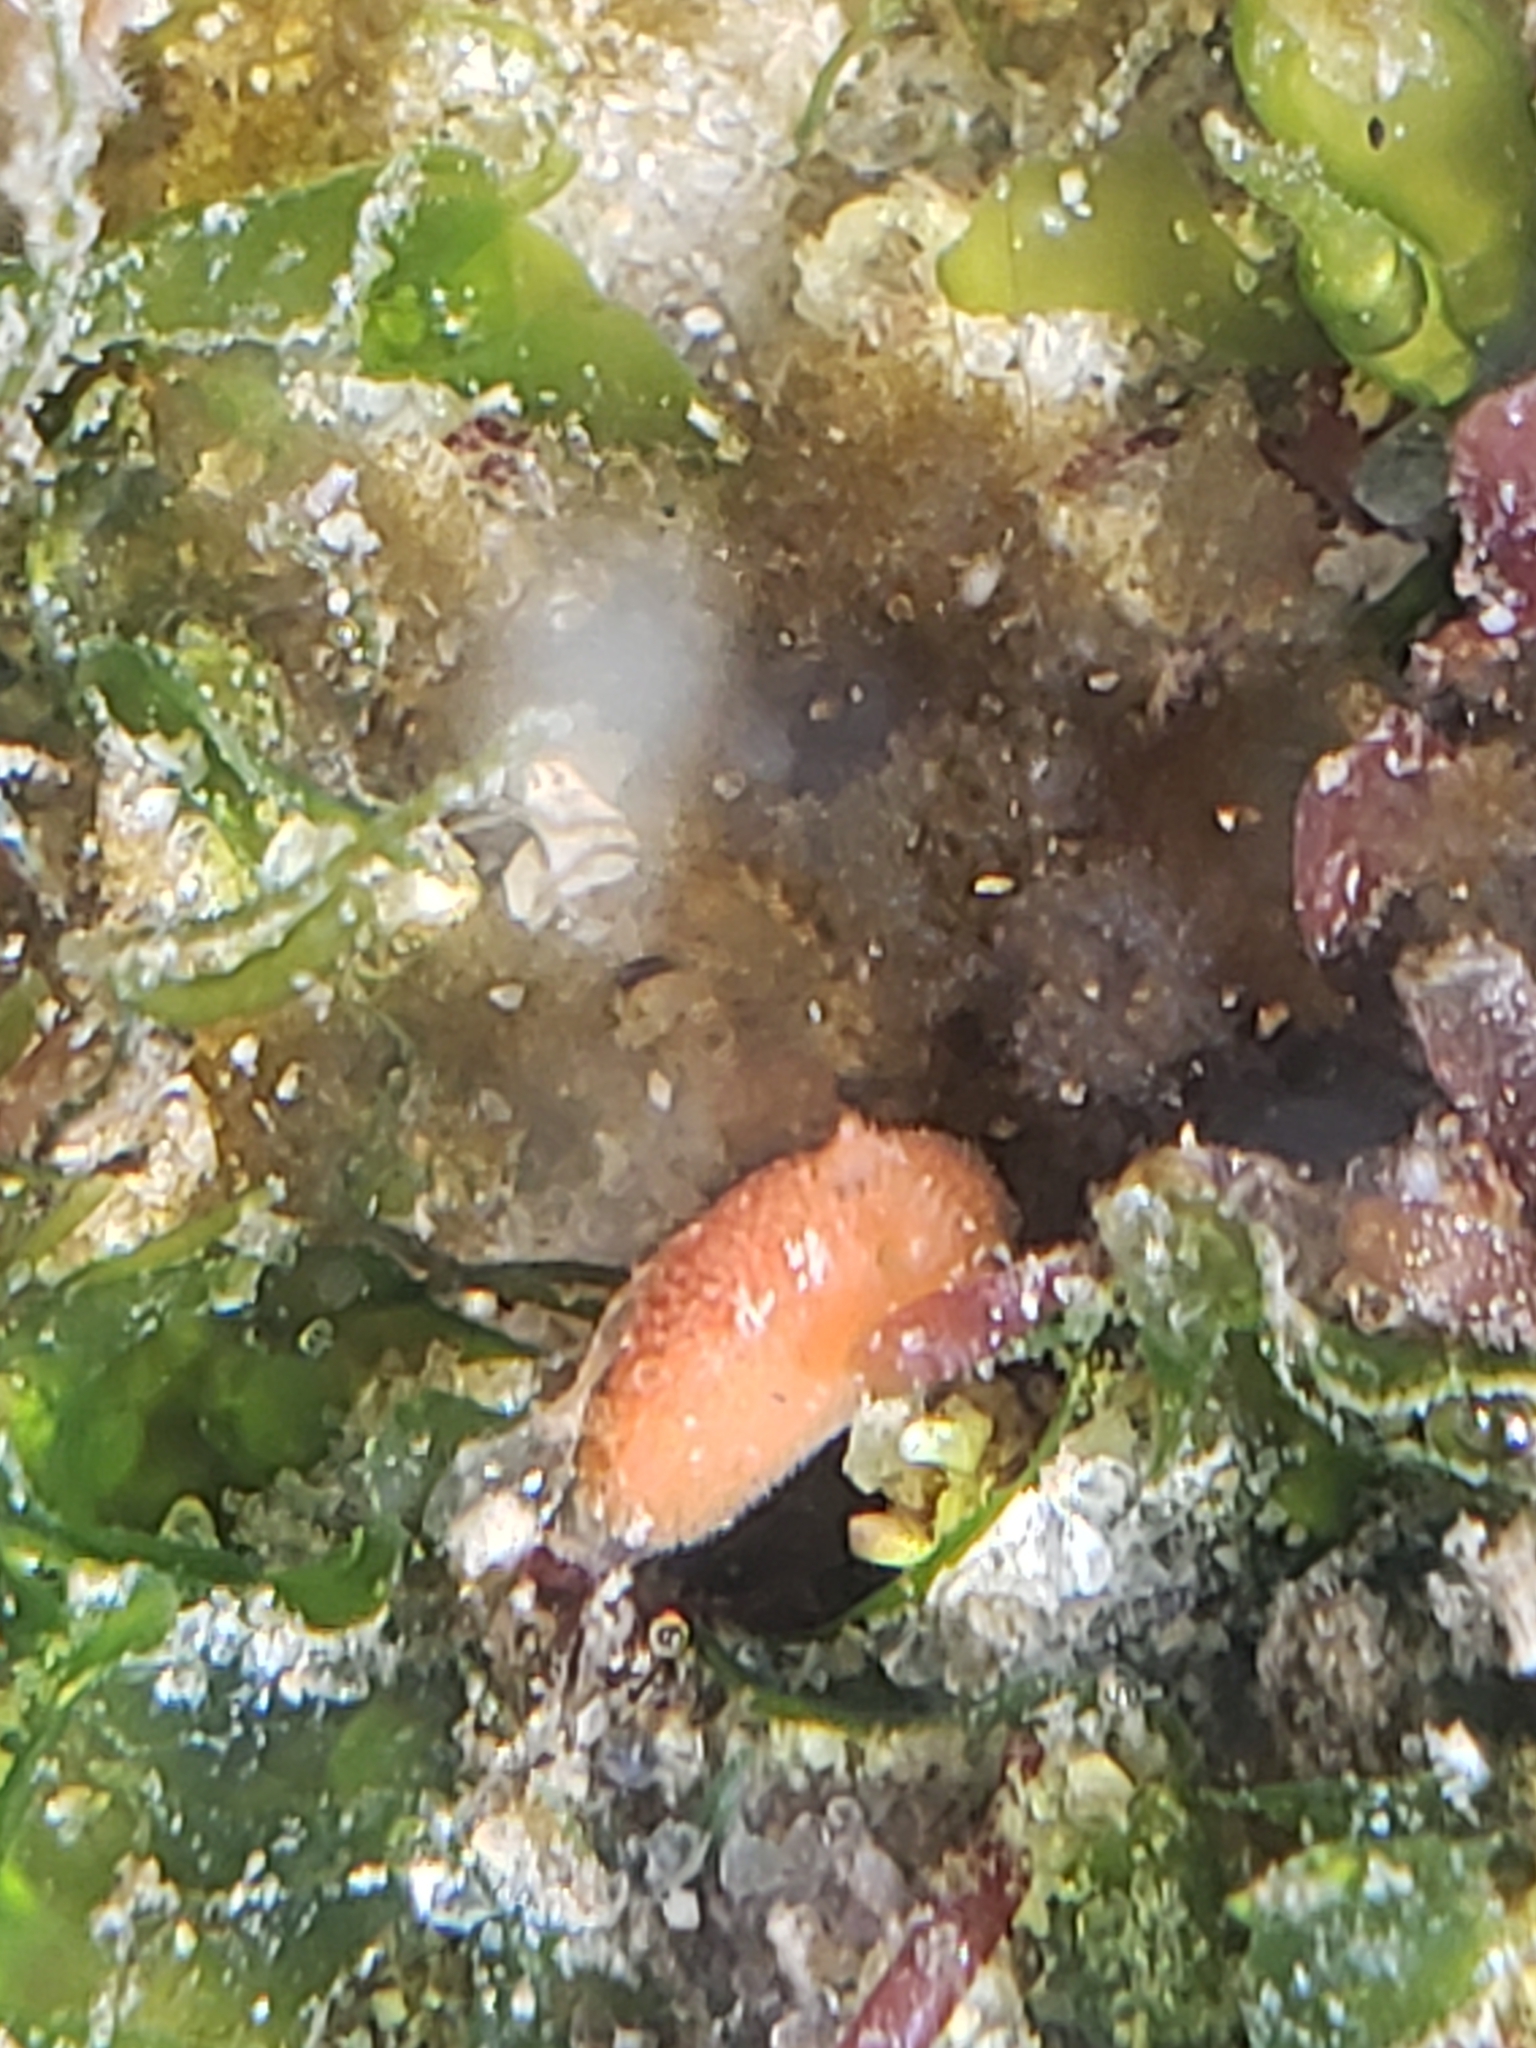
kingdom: Animalia
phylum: Mollusca
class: Gastropoda
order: Nudibranchia
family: Discodorididae
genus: Rostanga
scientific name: Rostanga pulchra
